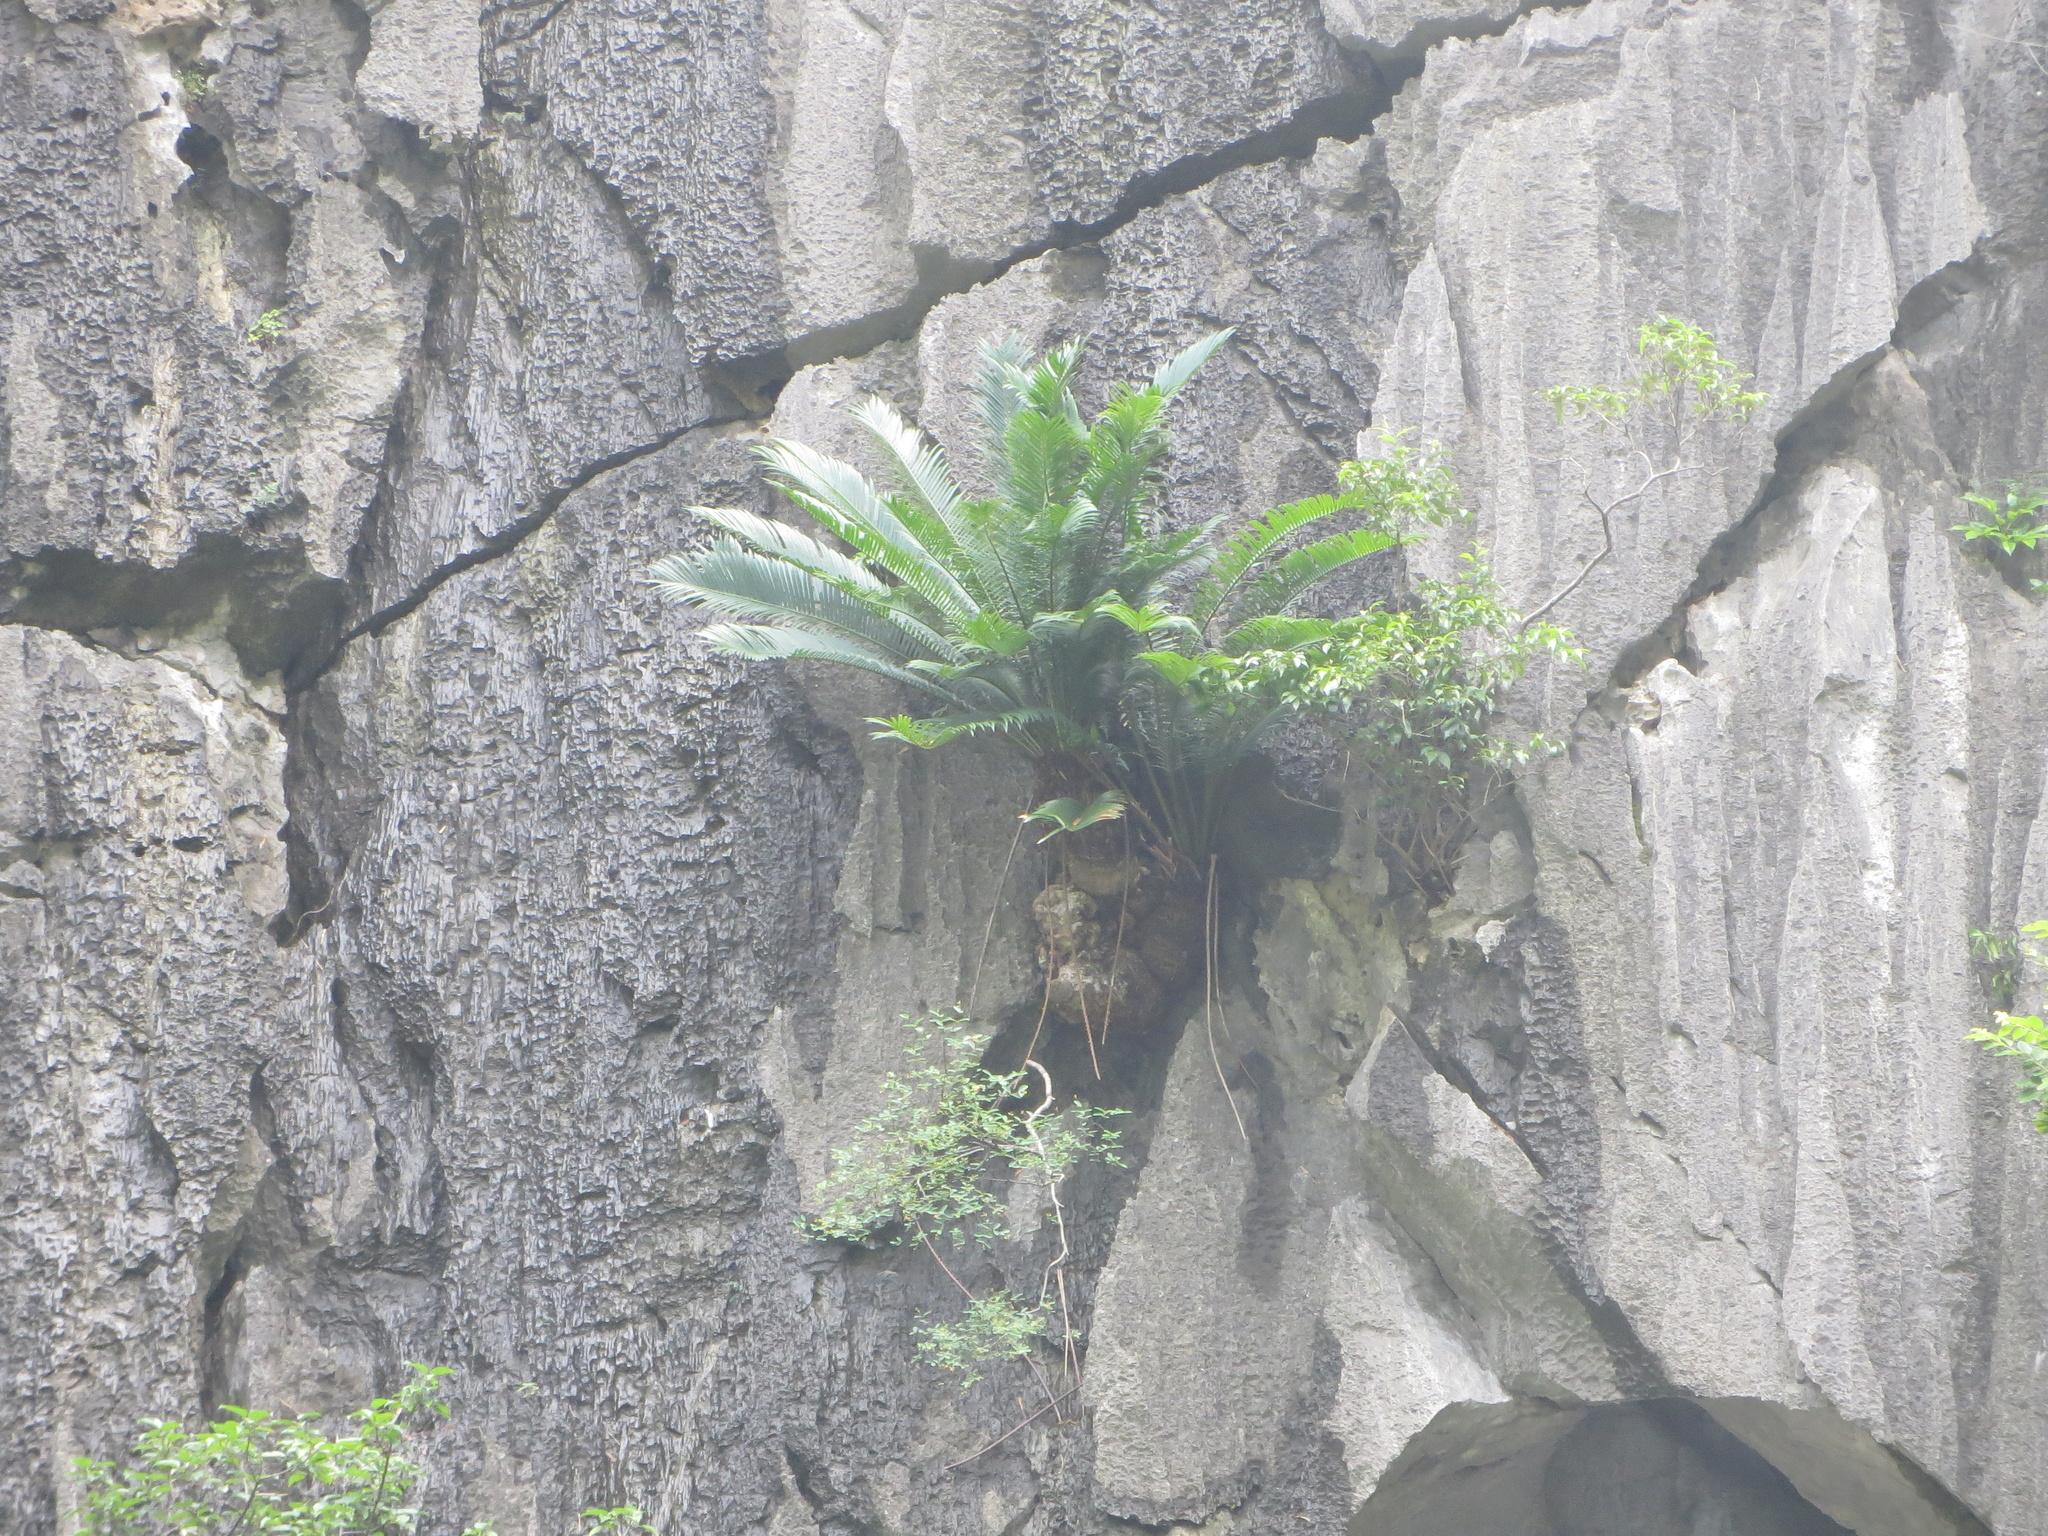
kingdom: Plantae
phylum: Tracheophyta
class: Cycadopsida
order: Cycadales
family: Cycadaceae
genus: Cycas
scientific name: Cycas tropophylla
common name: Ha long cycad
